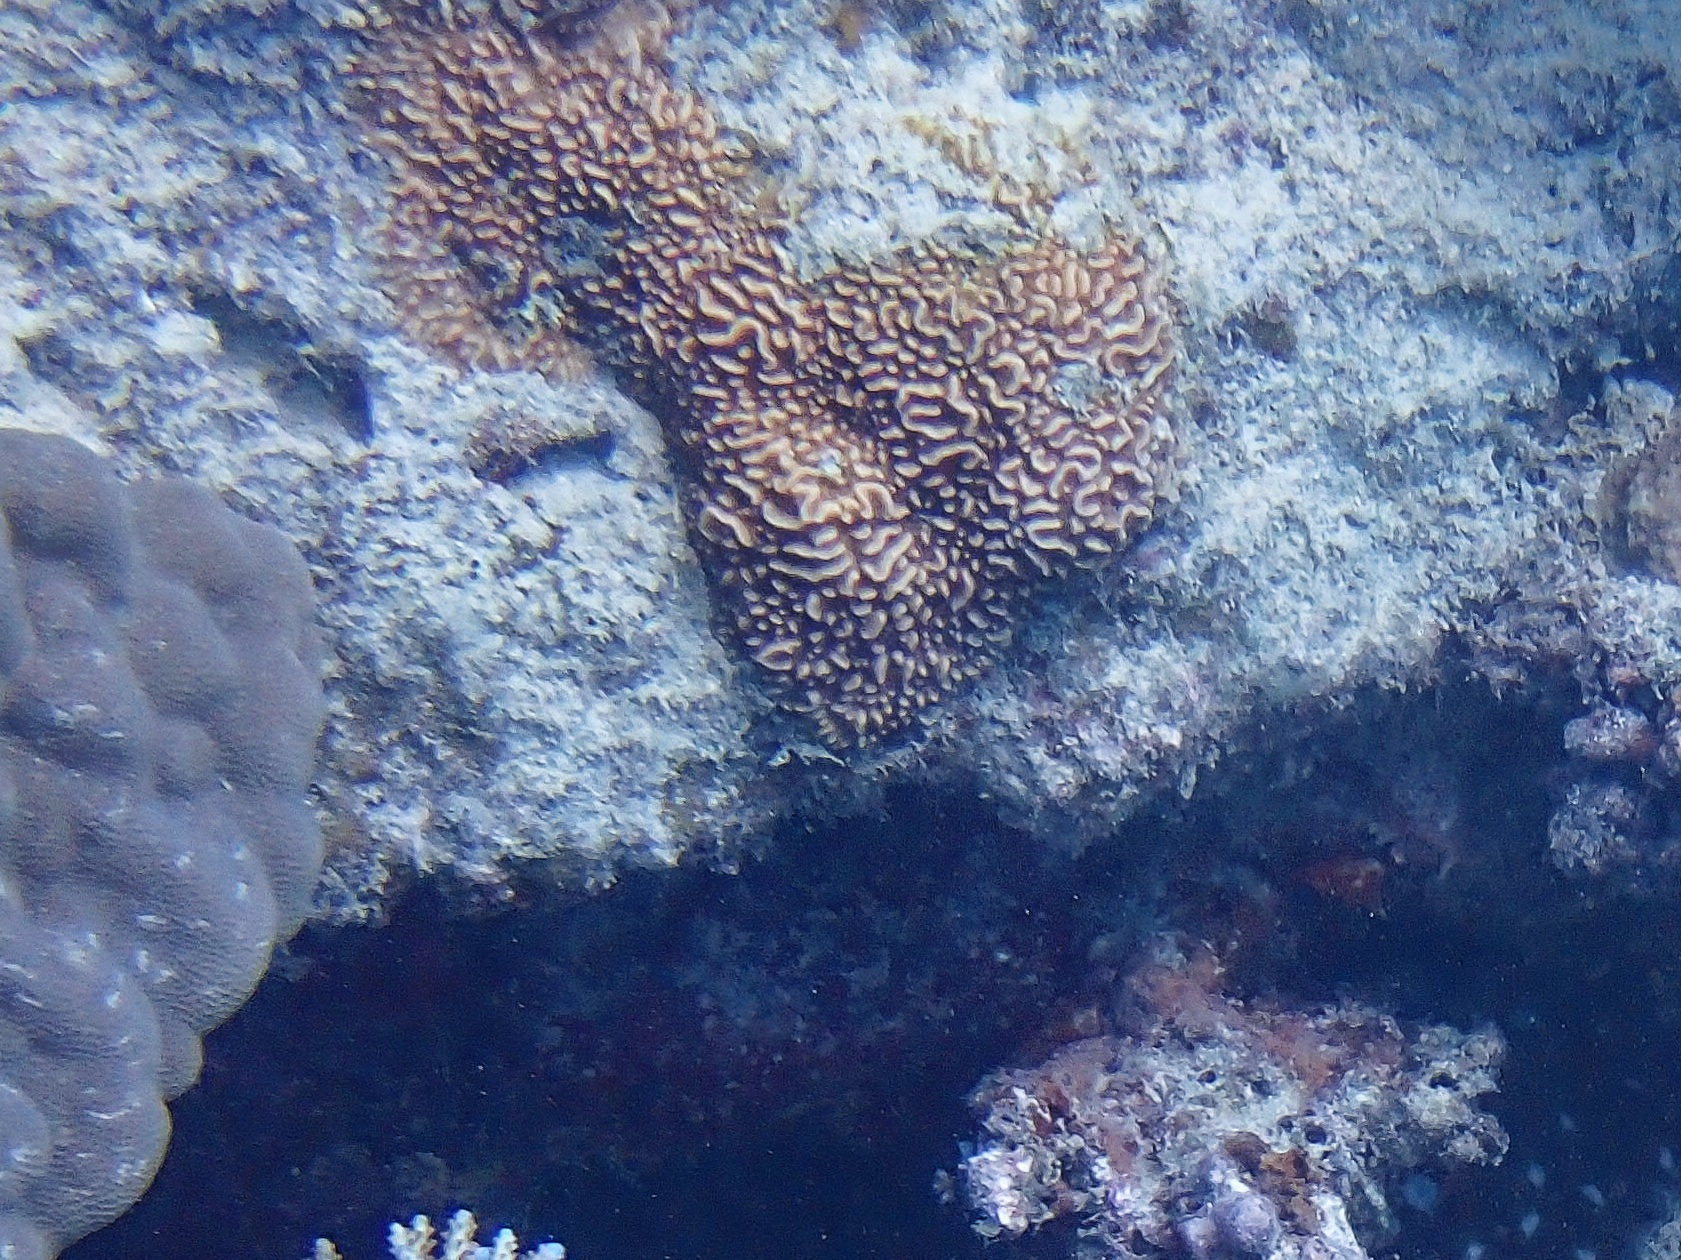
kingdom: Animalia
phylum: Cnidaria
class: Anthozoa
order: Scleractinia
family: Agariciidae
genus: Pavona
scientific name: Pavona varians
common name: Leaf coral
